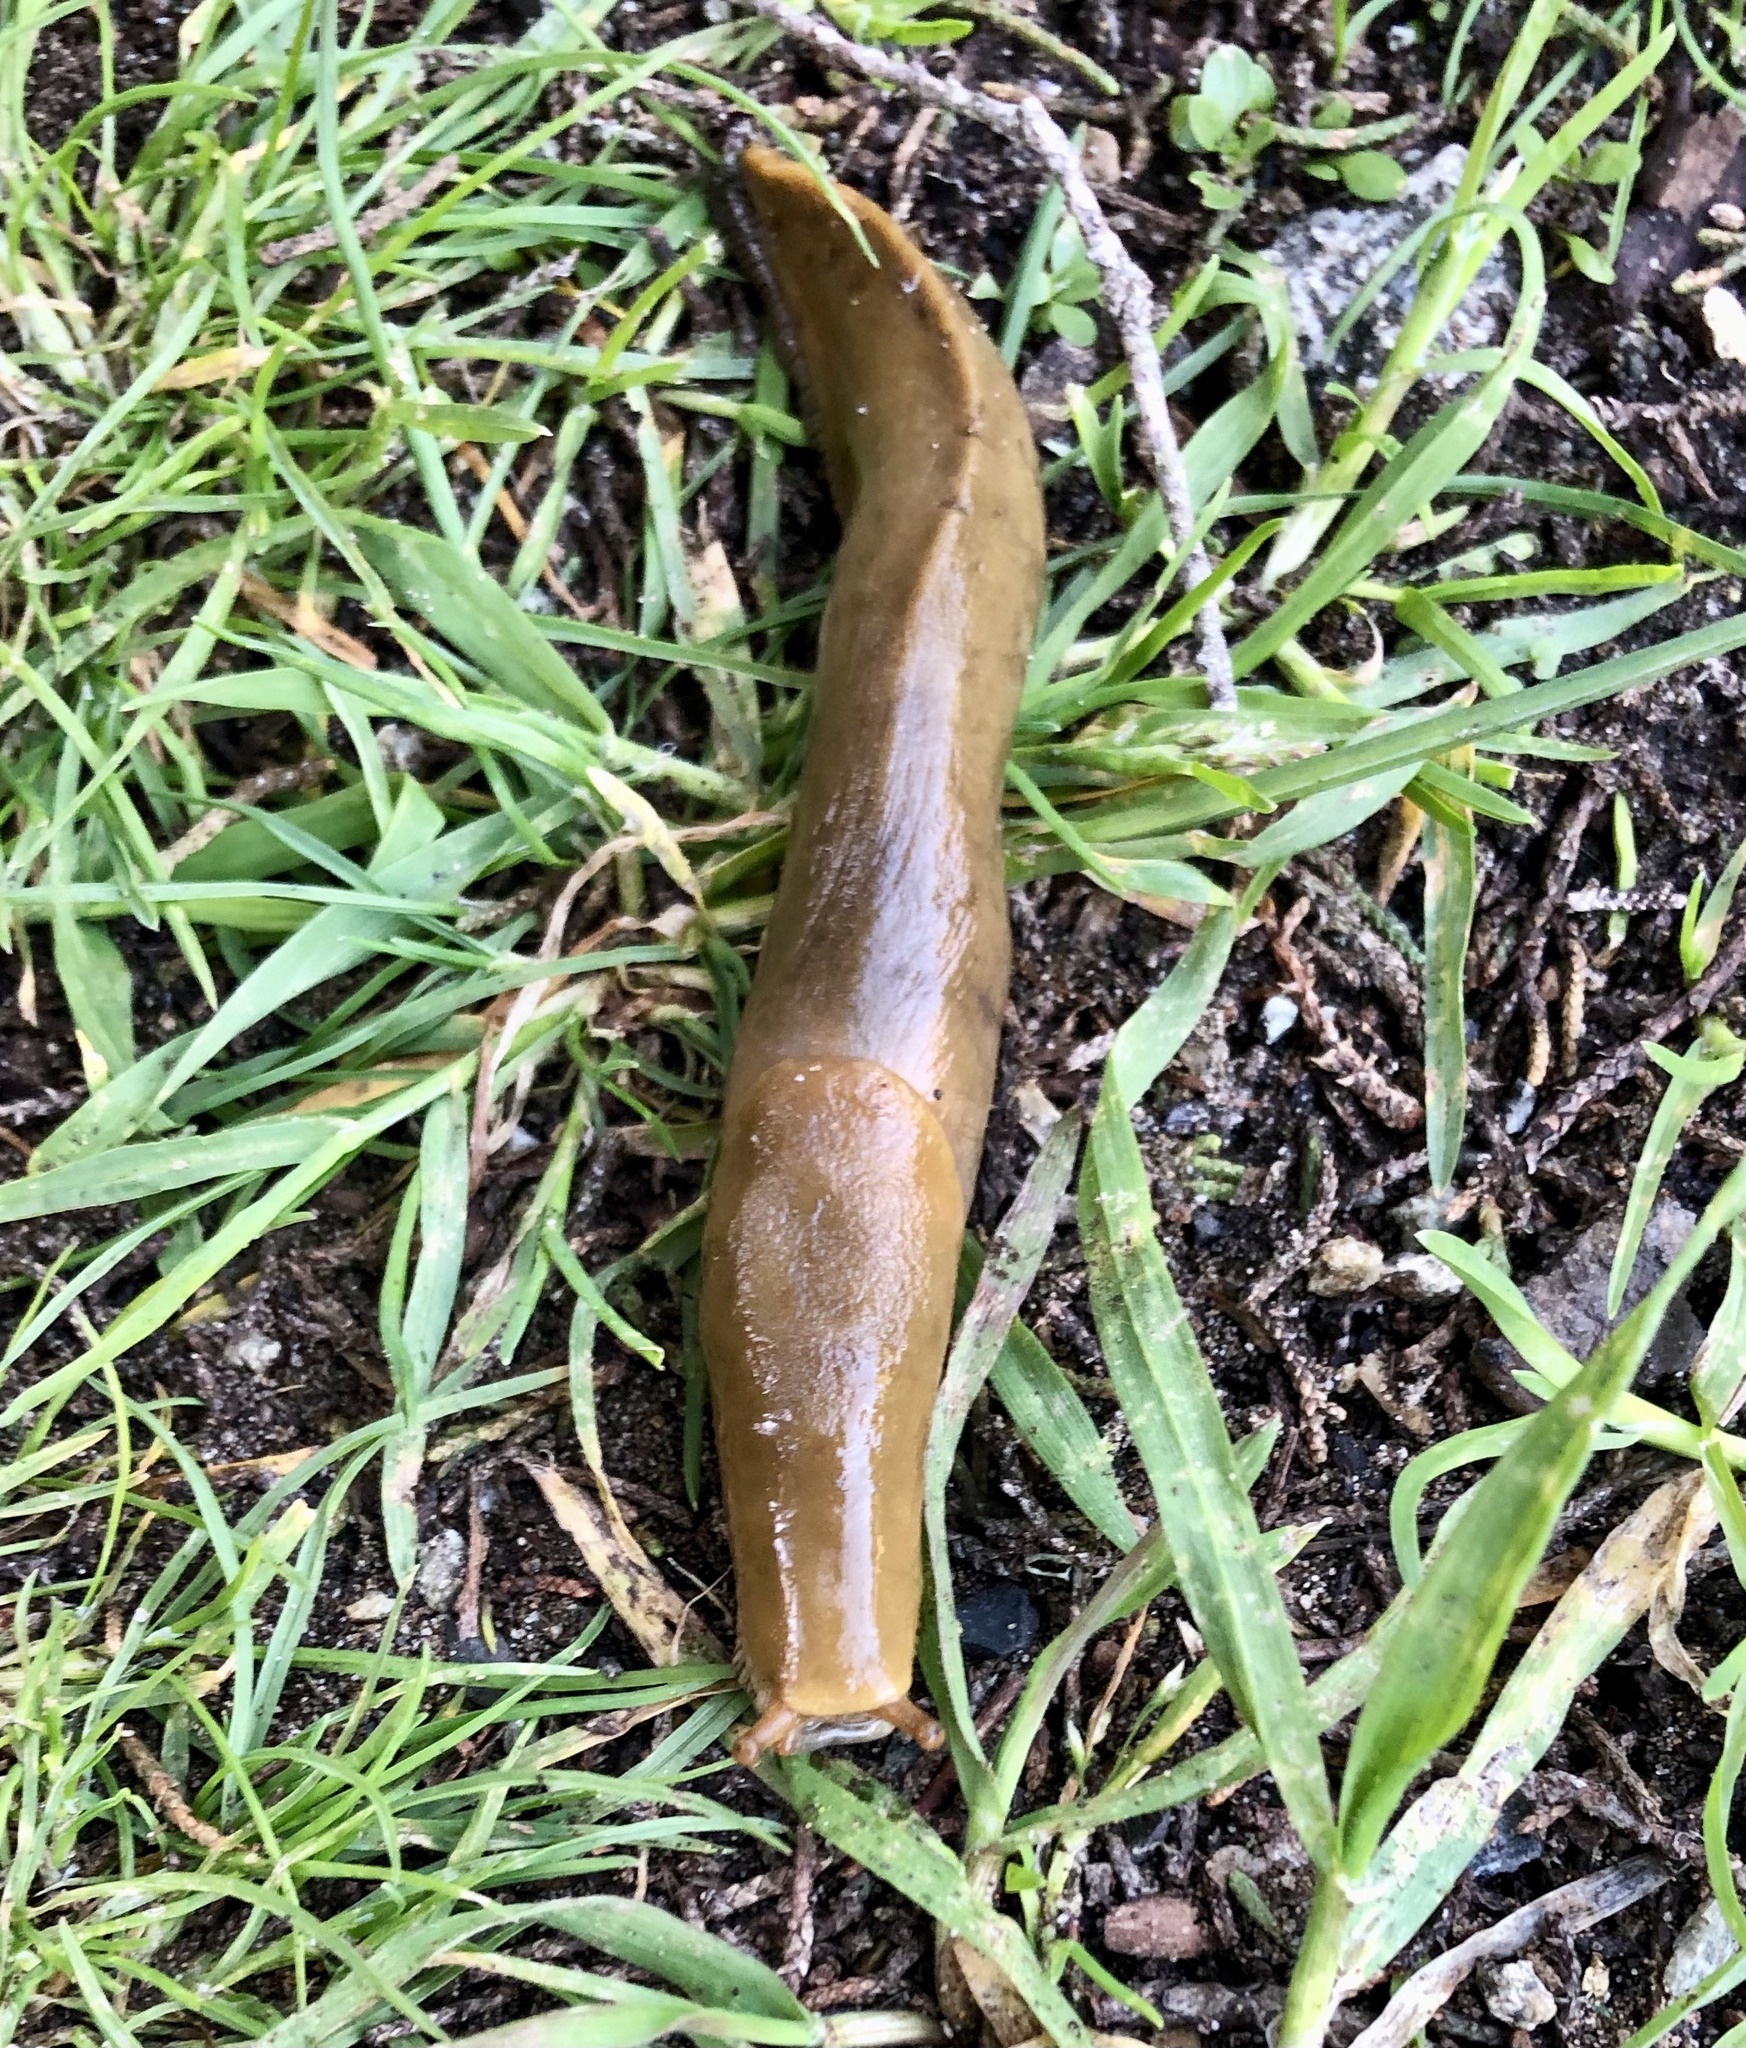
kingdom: Animalia
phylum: Mollusca
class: Gastropoda
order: Stylommatophora
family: Ariolimacidae
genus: Ariolimax
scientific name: Ariolimax buttoni
